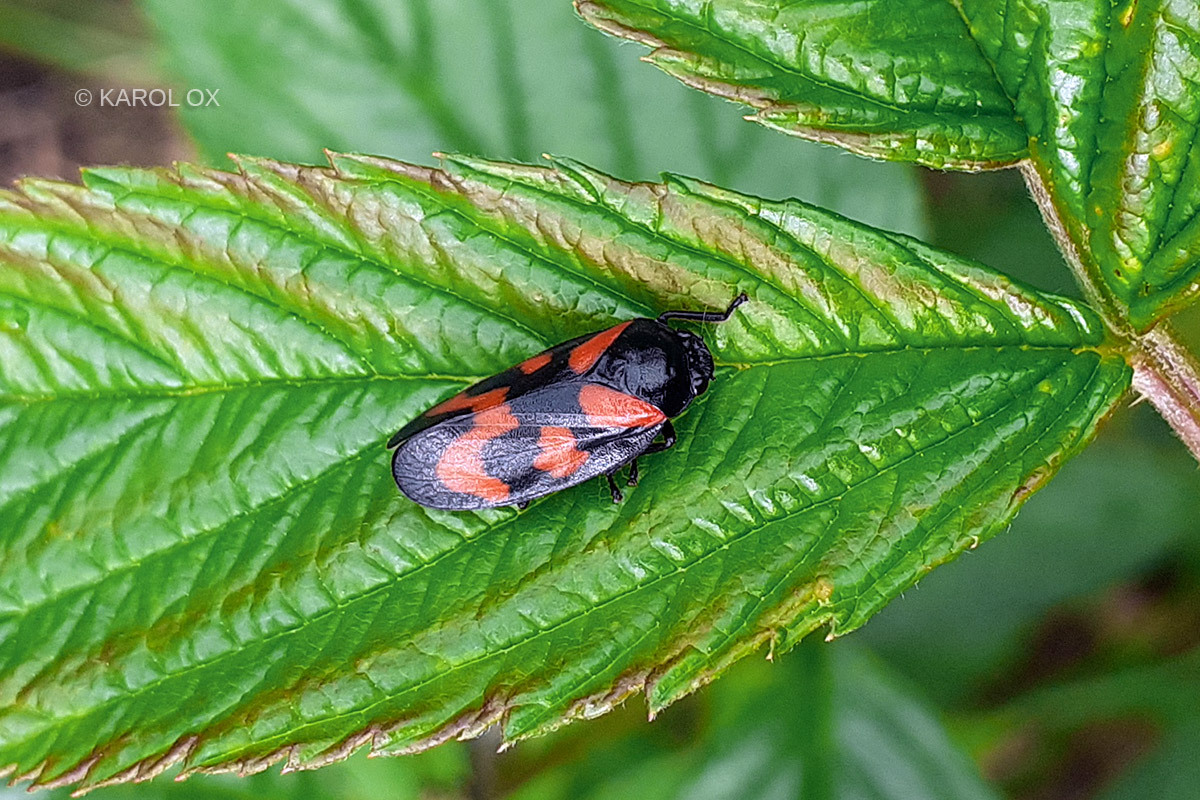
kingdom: Animalia
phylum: Arthropoda
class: Insecta
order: Hemiptera
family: Cercopidae
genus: Cercopis
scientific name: Cercopis vulnerata
